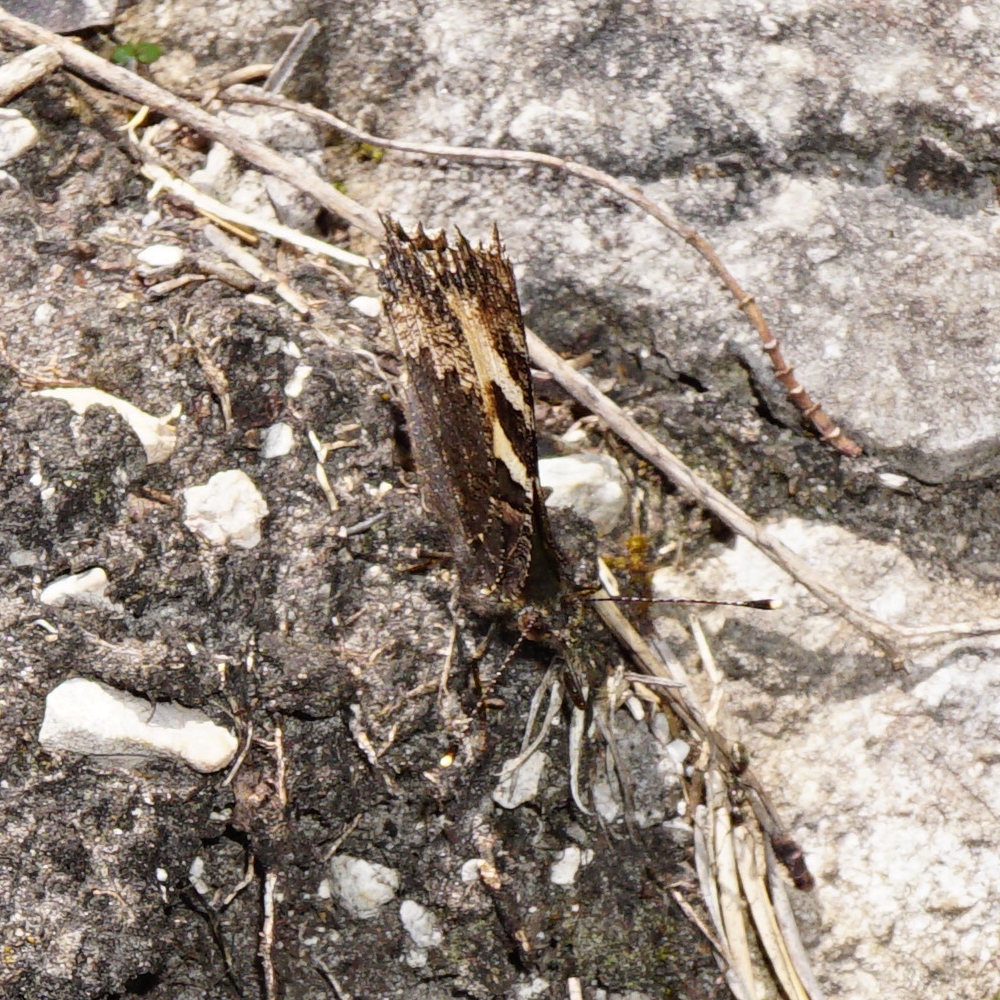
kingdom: Animalia
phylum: Arthropoda
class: Insecta
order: Lepidoptera
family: Nymphalidae
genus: Aglais
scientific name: Aglais urticae
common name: Small tortoiseshell
